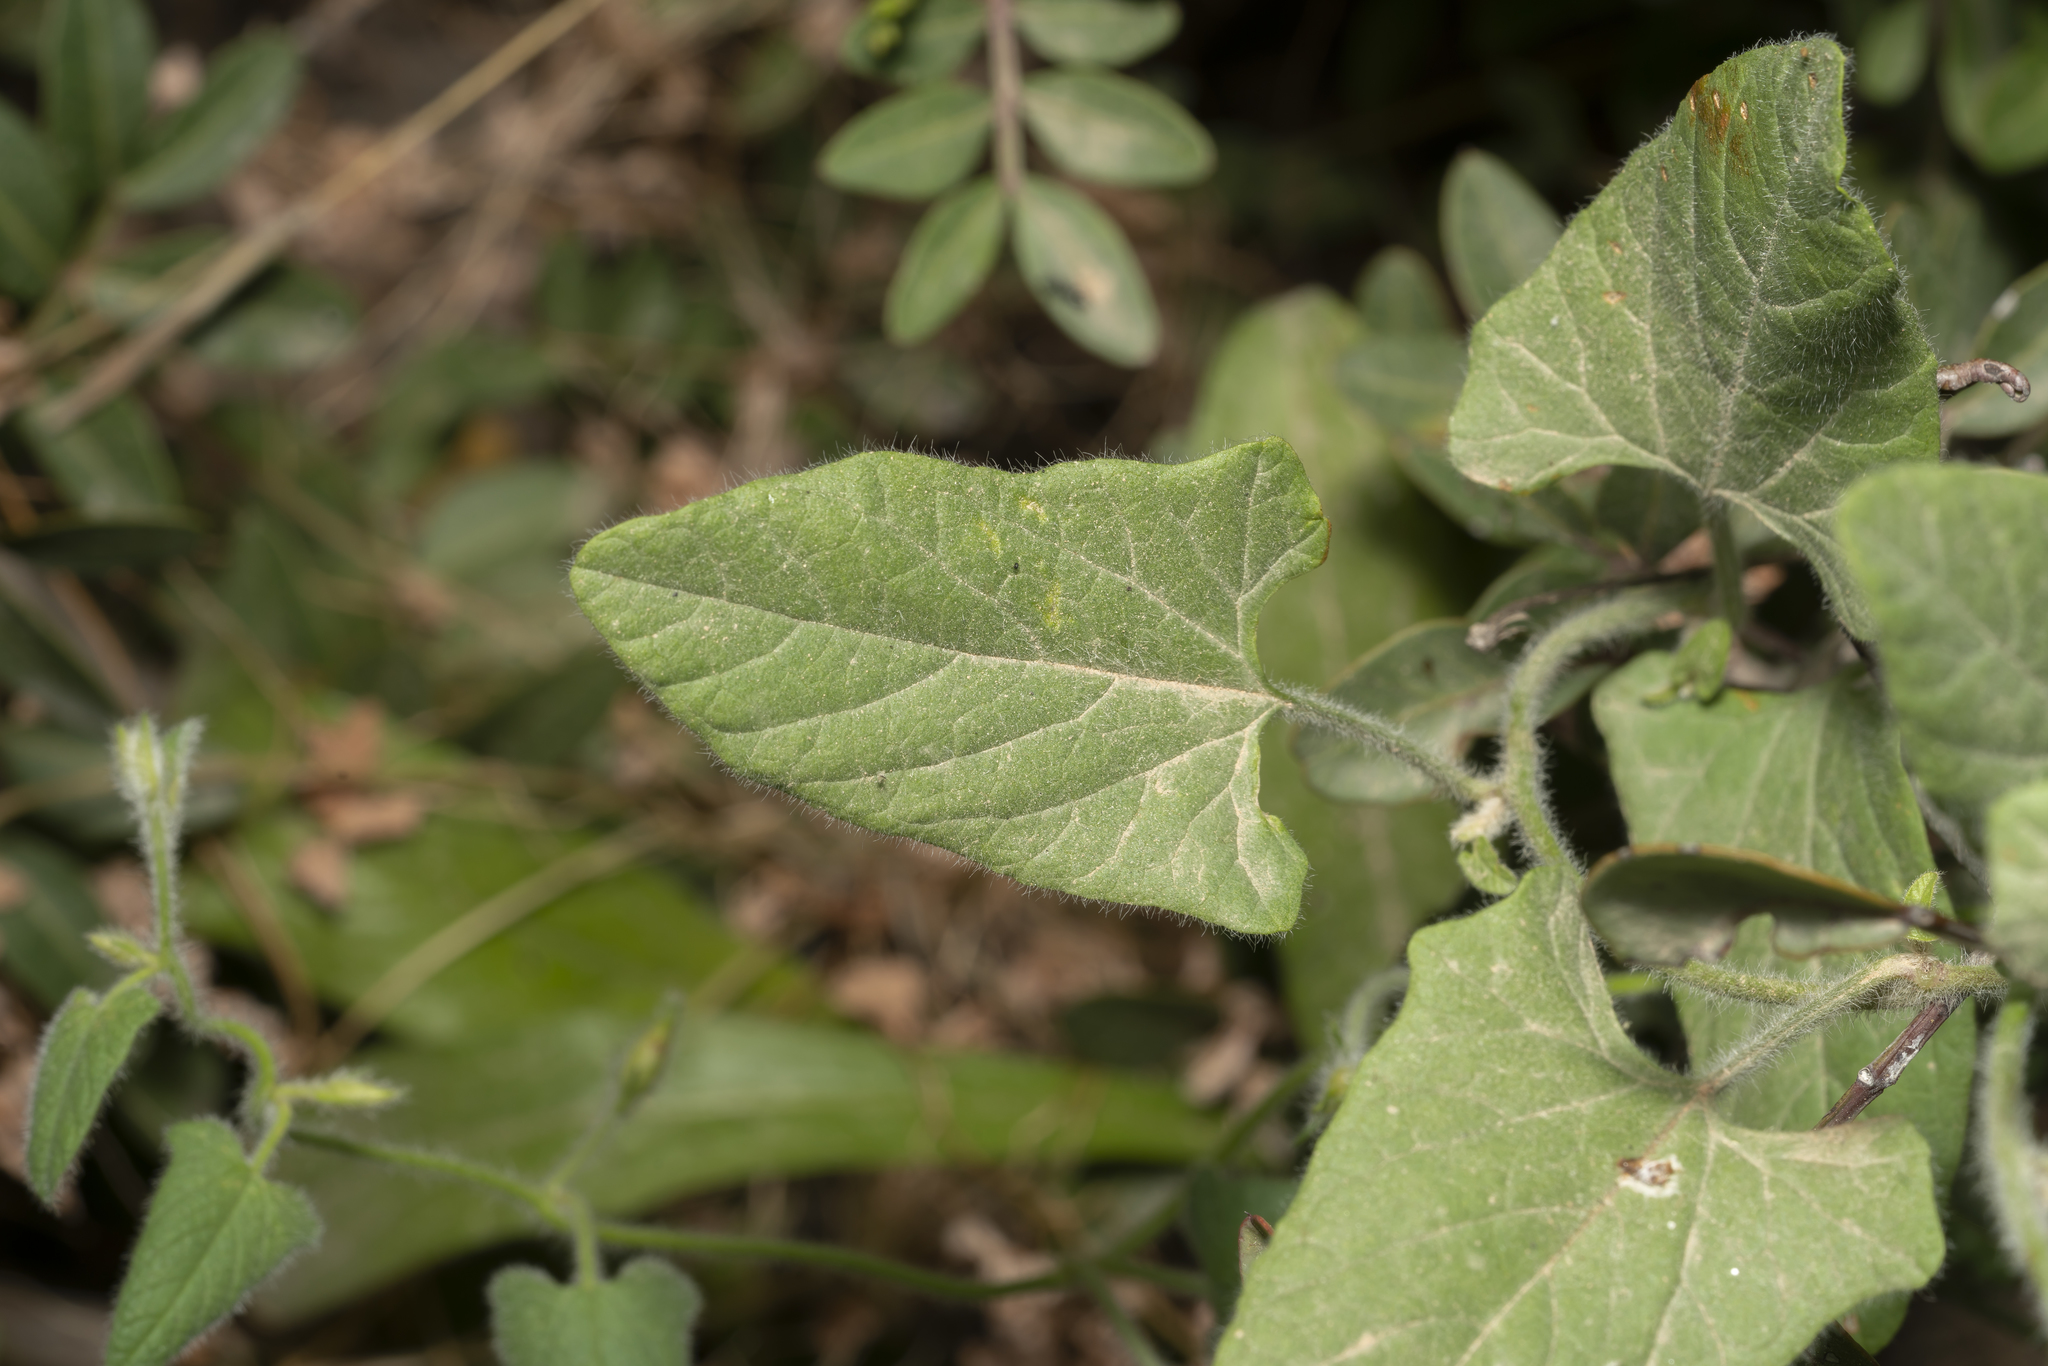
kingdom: Plantae
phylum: Tracheophyta
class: Magnoliopsida
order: Solanales
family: Convolvulaceae
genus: Convolvulus
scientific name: Convolvulus betonicifolius
